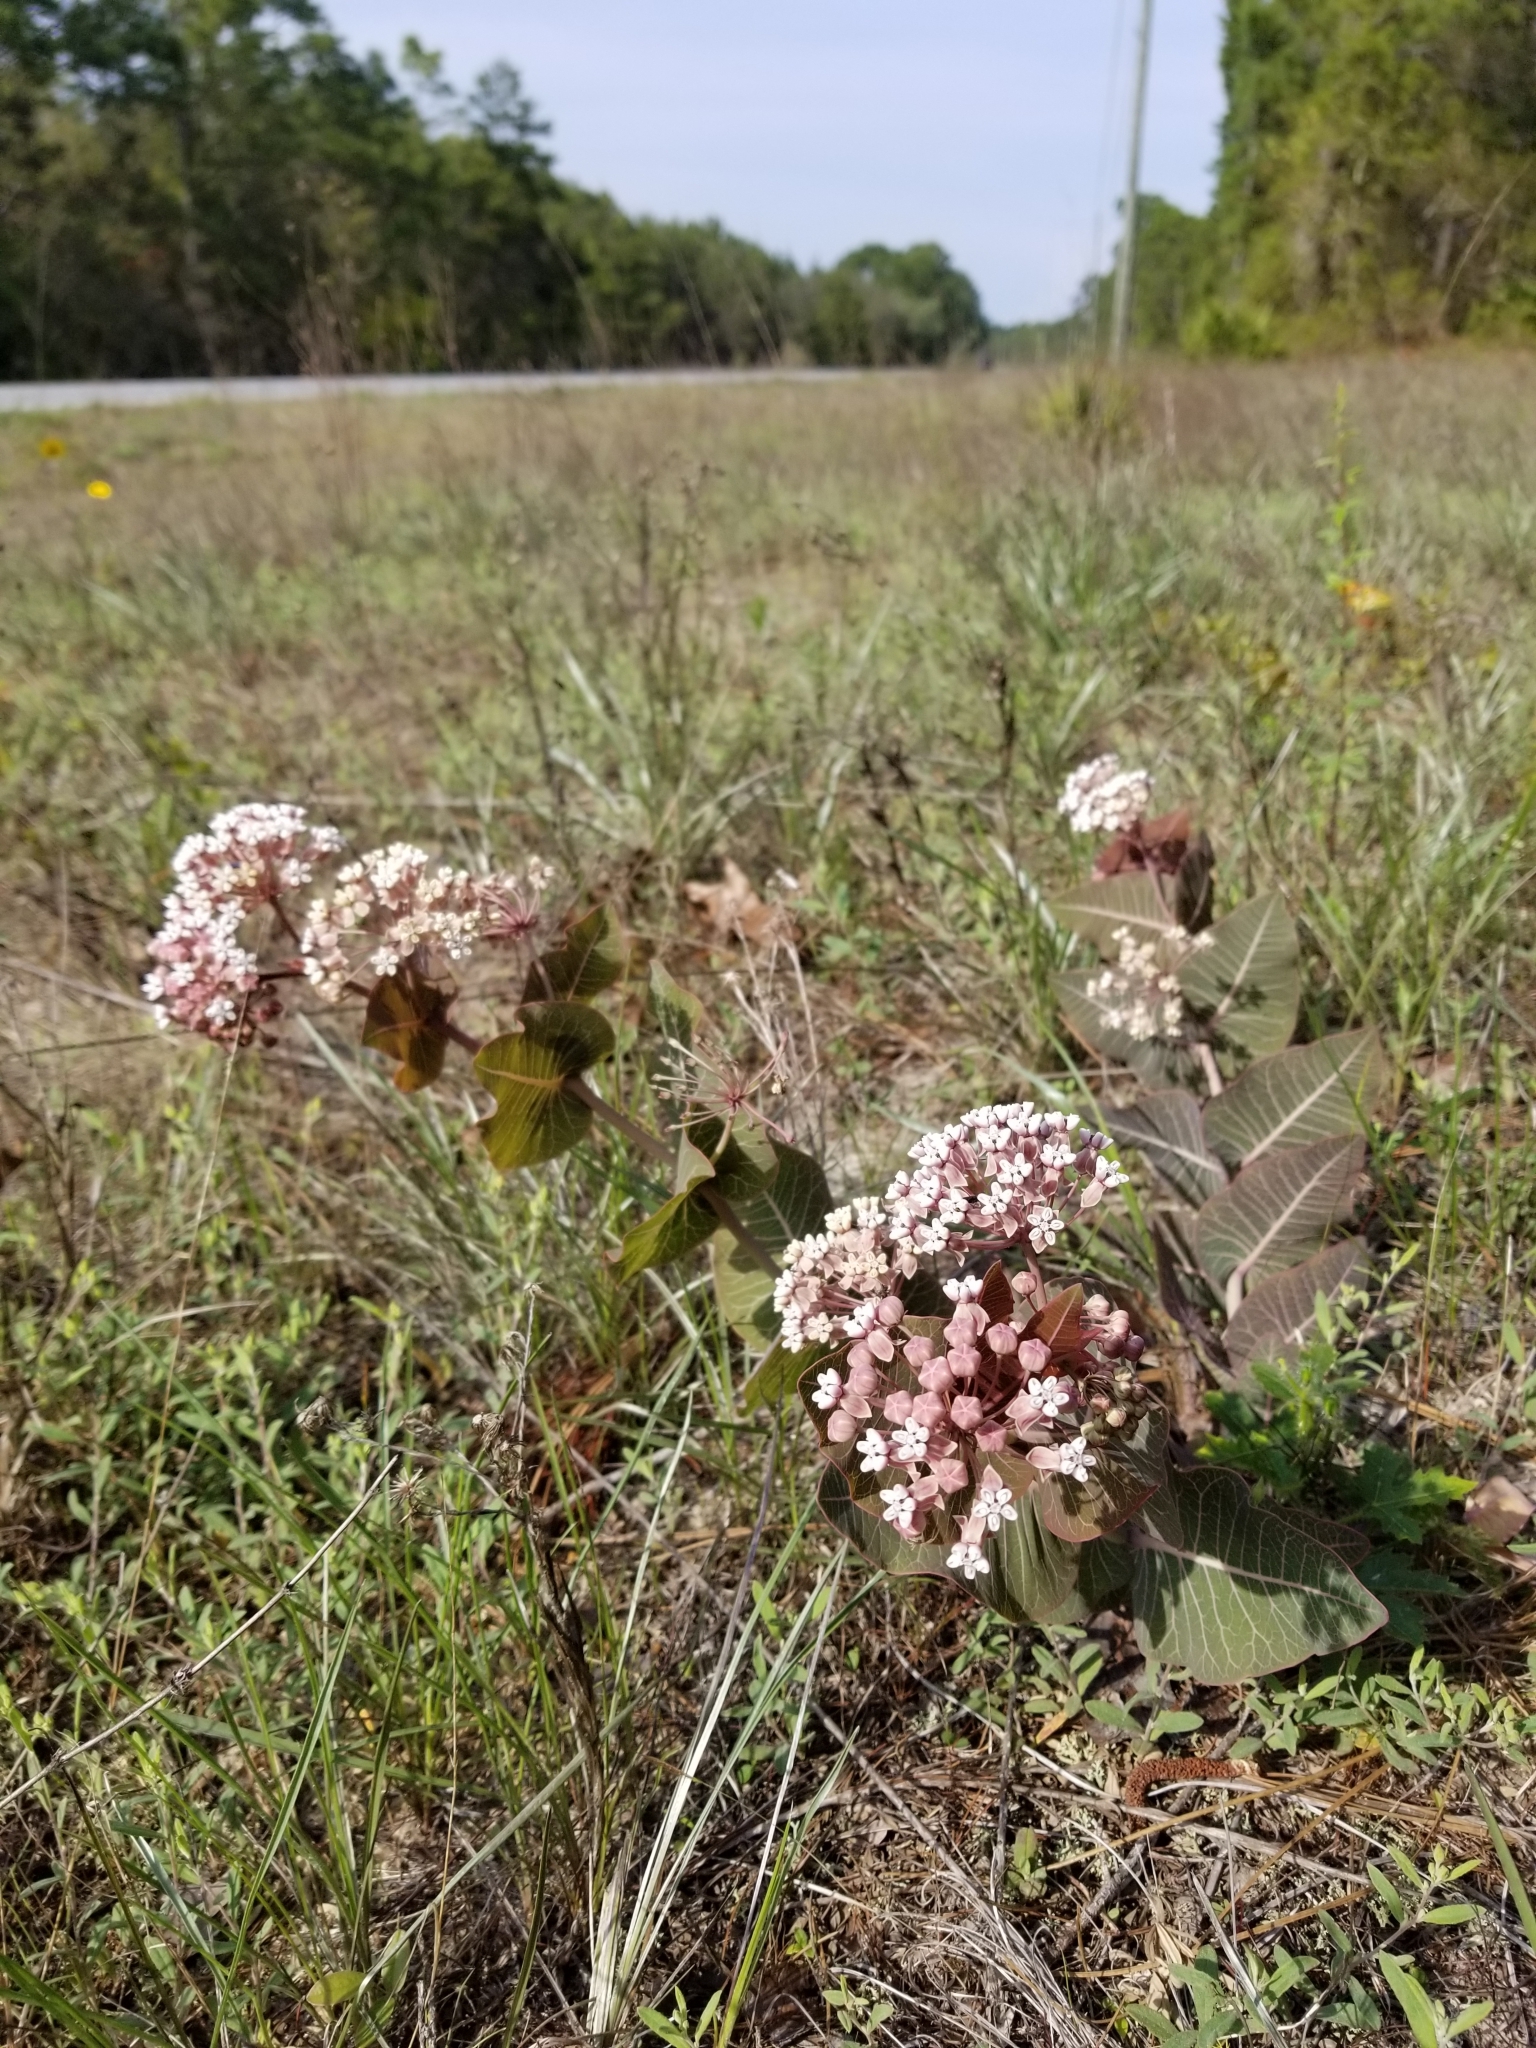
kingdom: Plantae
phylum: Tracheophyta
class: Magnoliopsida
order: Gentianales
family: Apocynaceae
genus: Asclepias
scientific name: Asclepias humistrata
